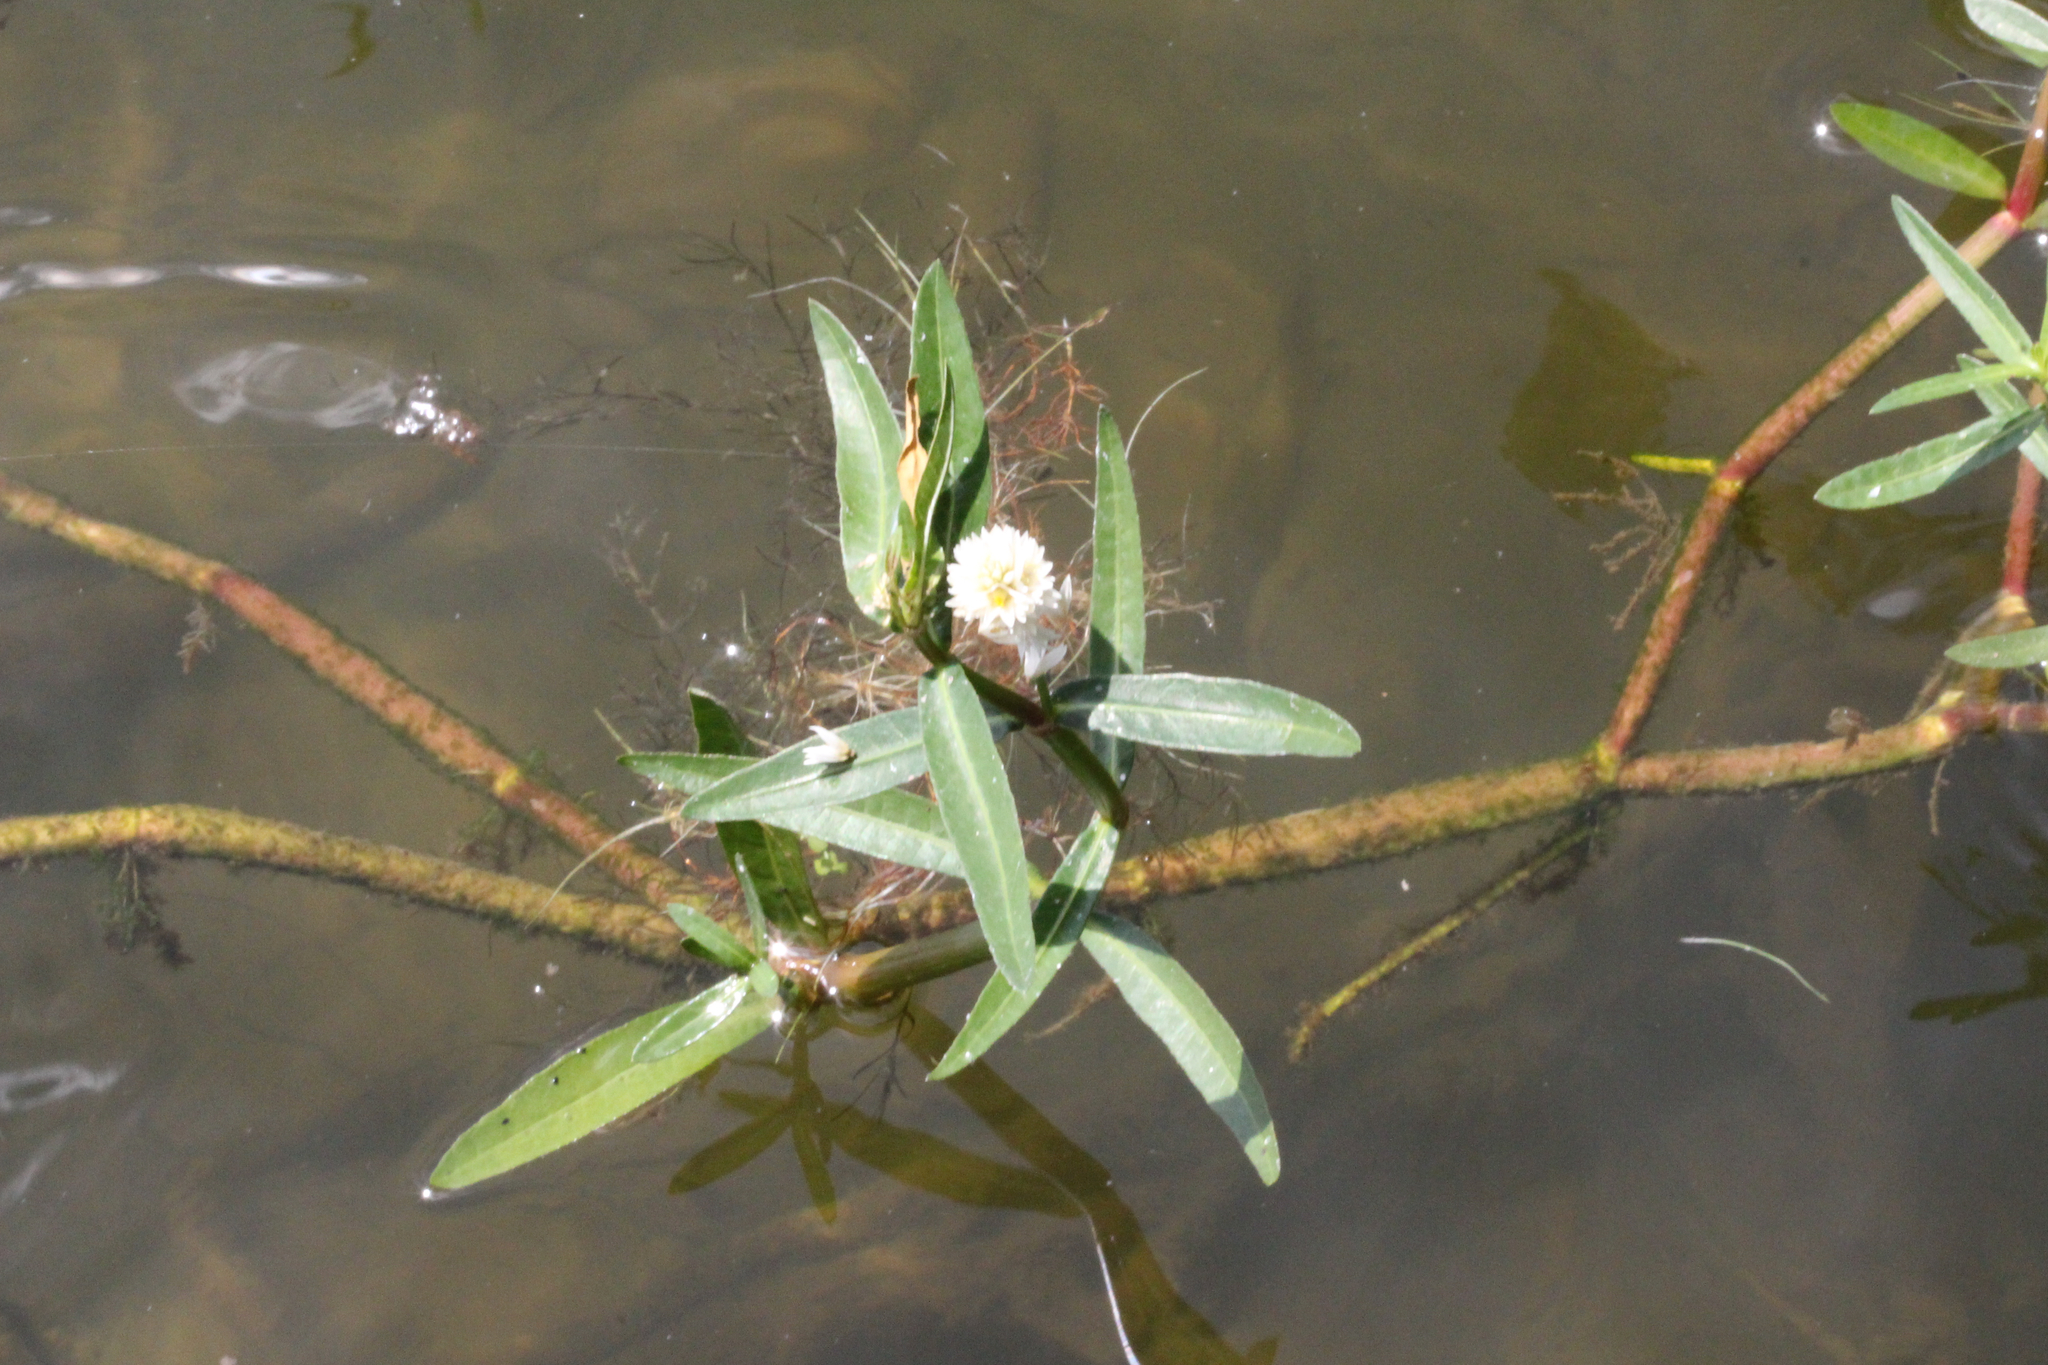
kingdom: Plantae
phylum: Tracheophyta
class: Magnoliopsida
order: Caryophyllales
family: Amaranthaceae
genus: Alternanthera
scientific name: Alternanthera philoxeroides
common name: Alligatorweed
